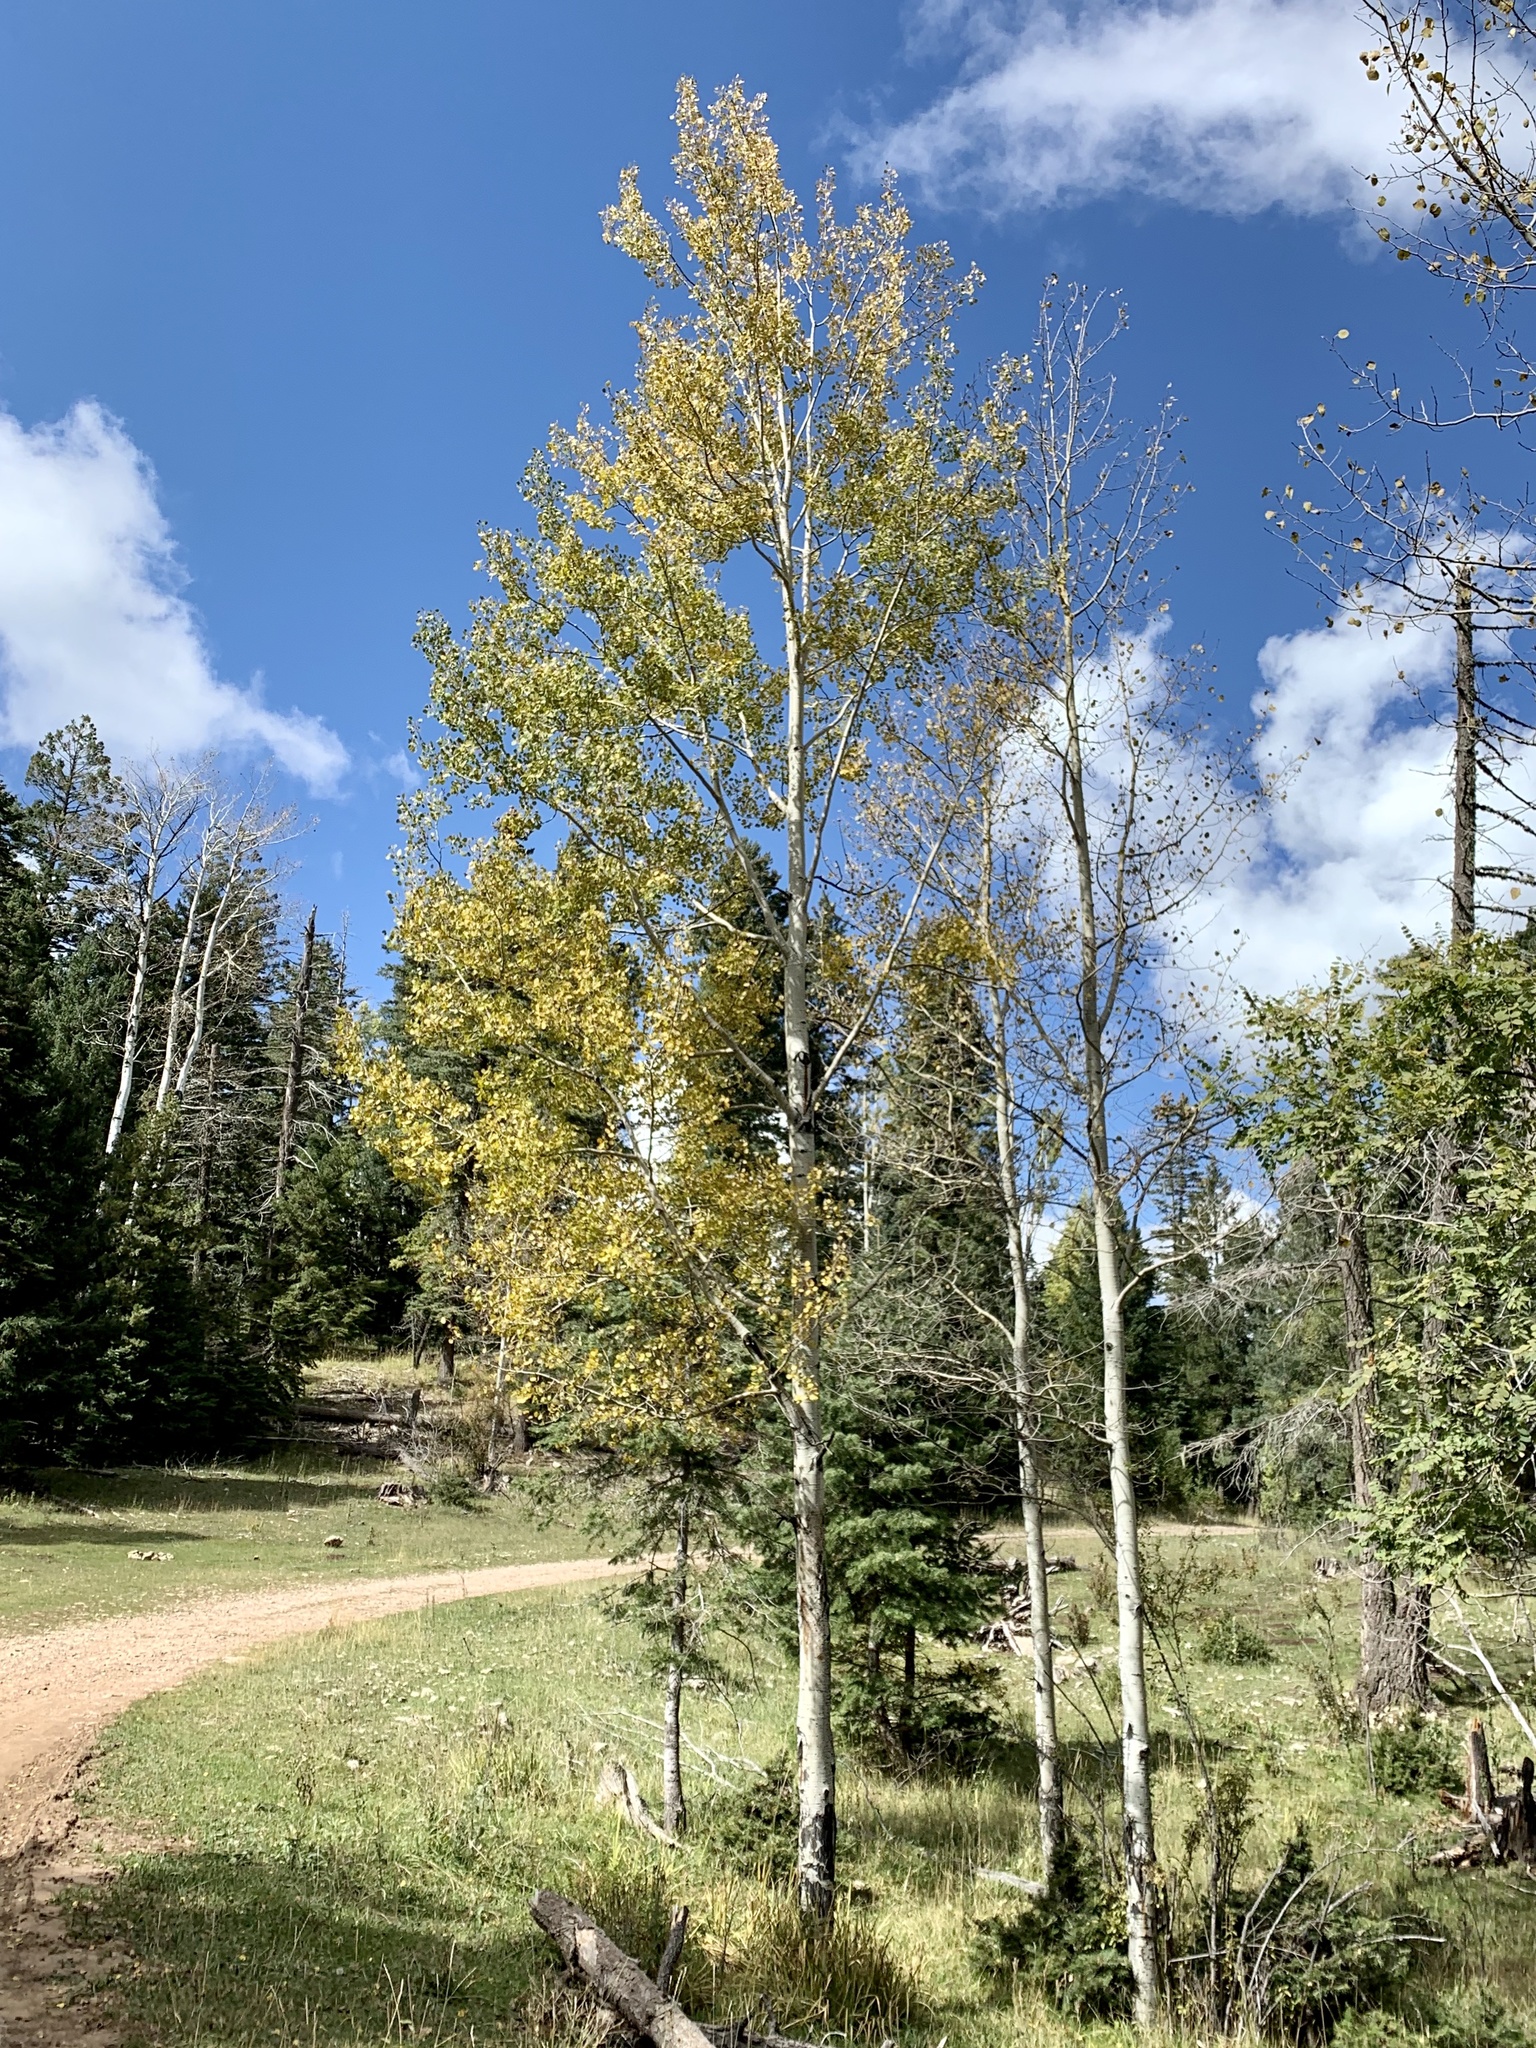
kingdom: Plantae
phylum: Tracheophyta
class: Magnoliopsida
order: Malpighiales
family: Salicaceae
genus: Populus
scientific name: Populus tremuloides
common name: Quaking aspen
